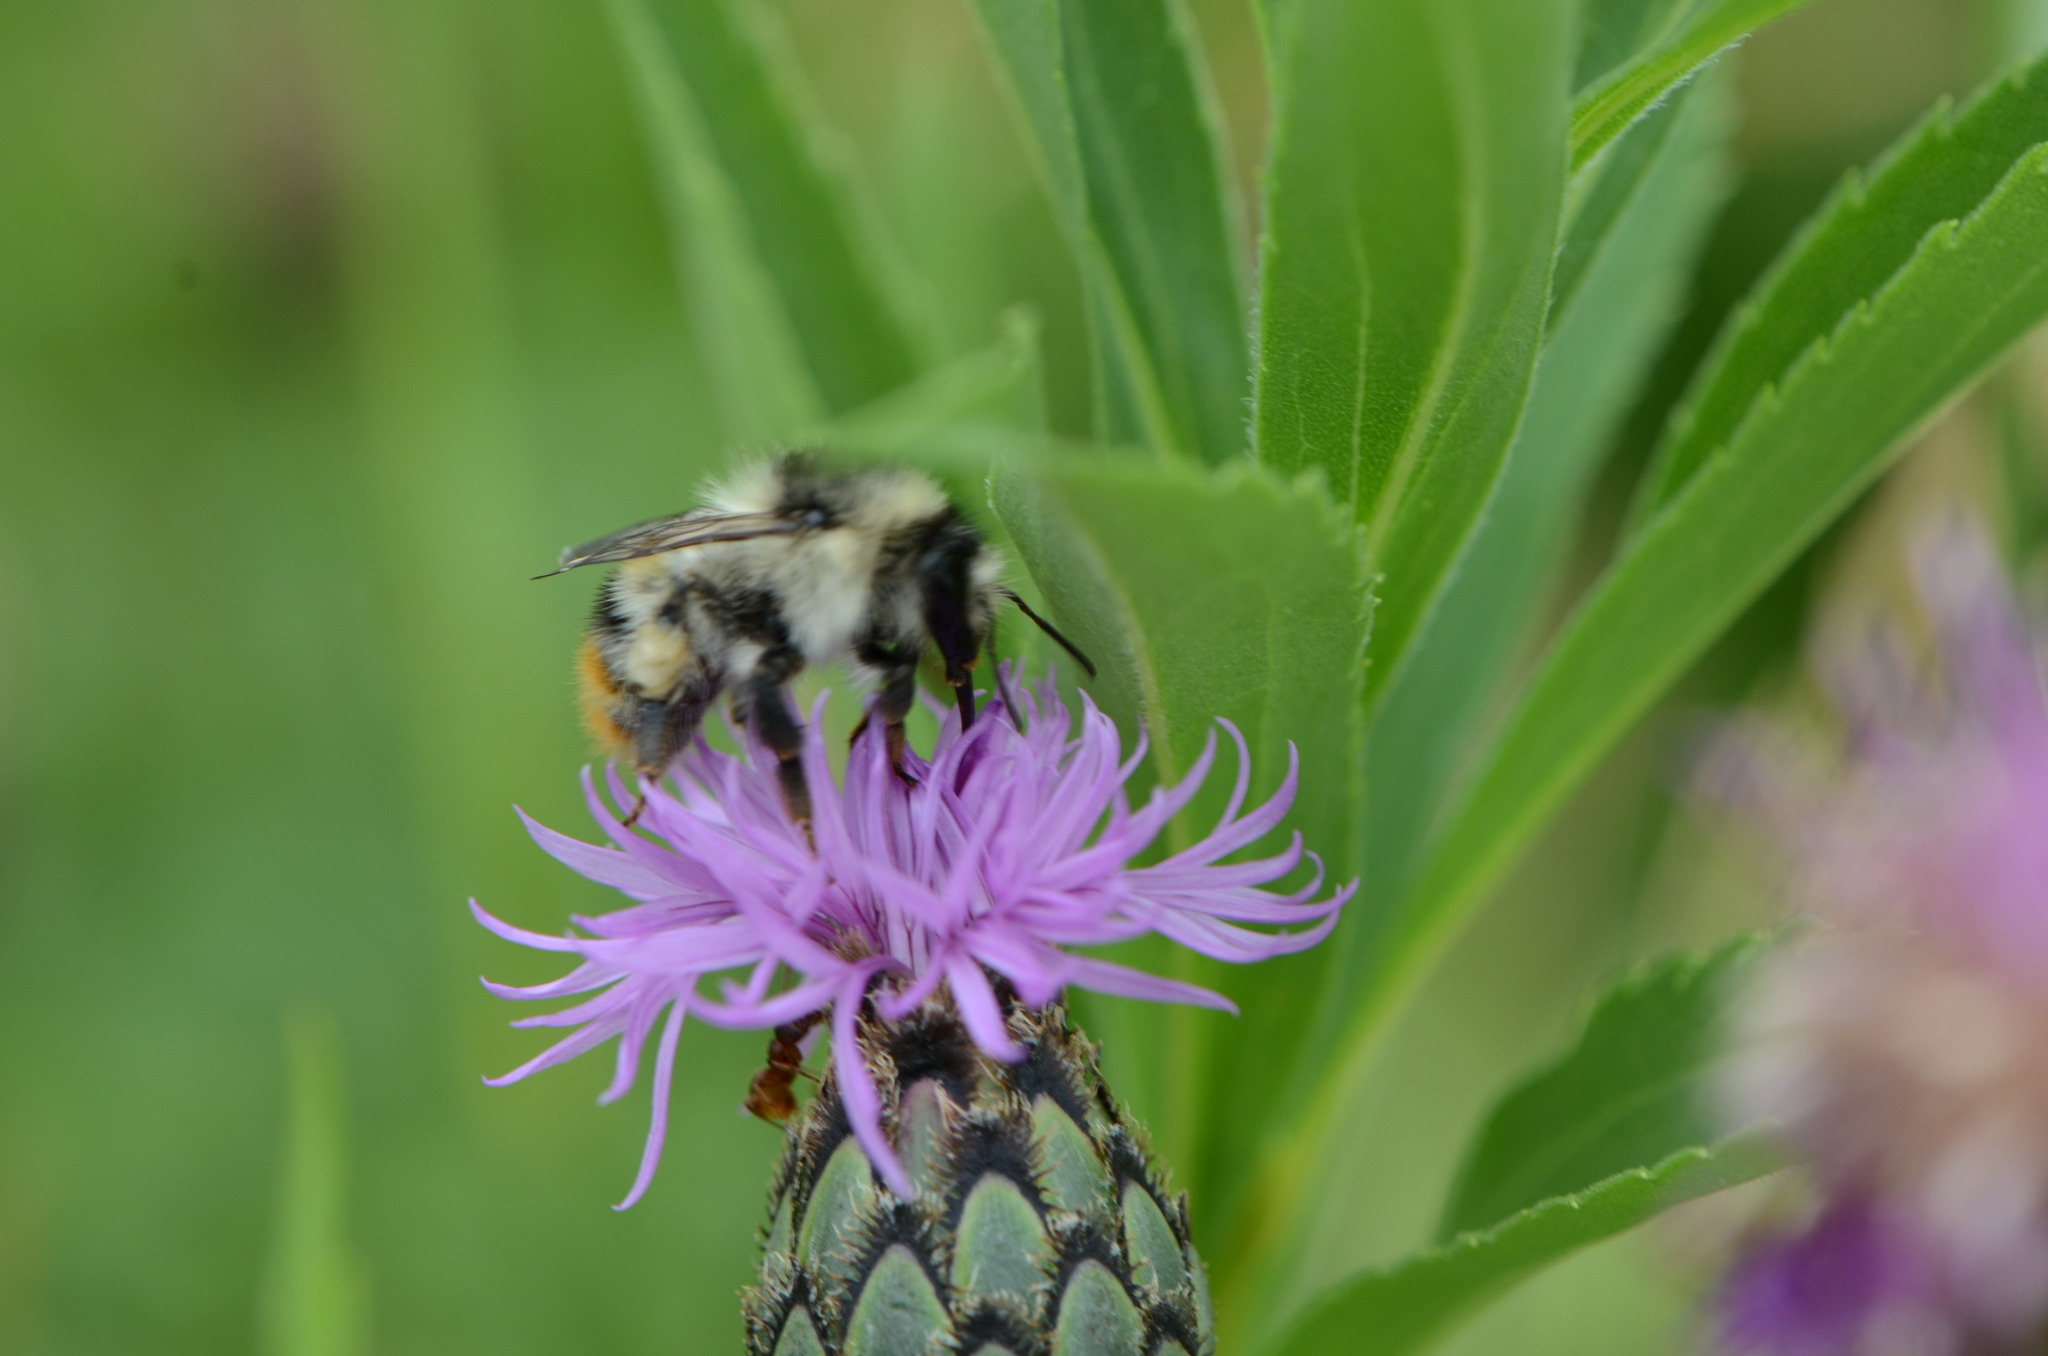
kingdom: Animalia
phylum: Arthropoda
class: Insecta
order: Hymenoptera
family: Apidae
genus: Bombus
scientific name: Bombus sylvarum
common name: Shrill carder bee
